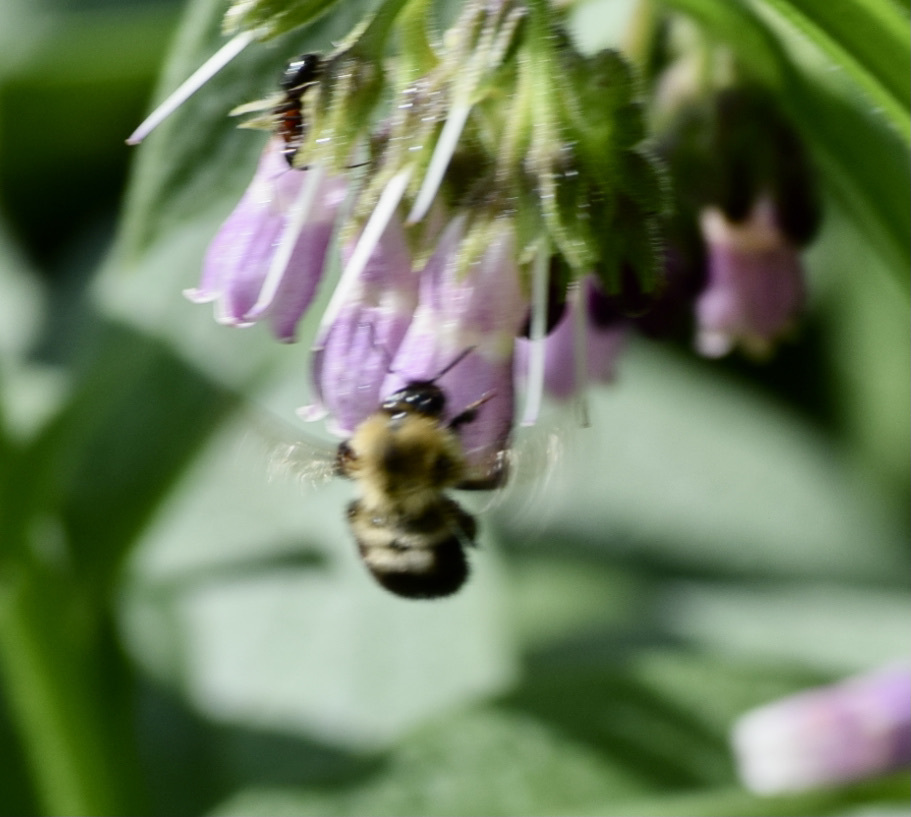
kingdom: Animalia
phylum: Arthropoda
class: Insecta
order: Hymenoptera
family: Apidae
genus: Bombus
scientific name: Bombus bimaculatus
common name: Two-spotted bumble bee
